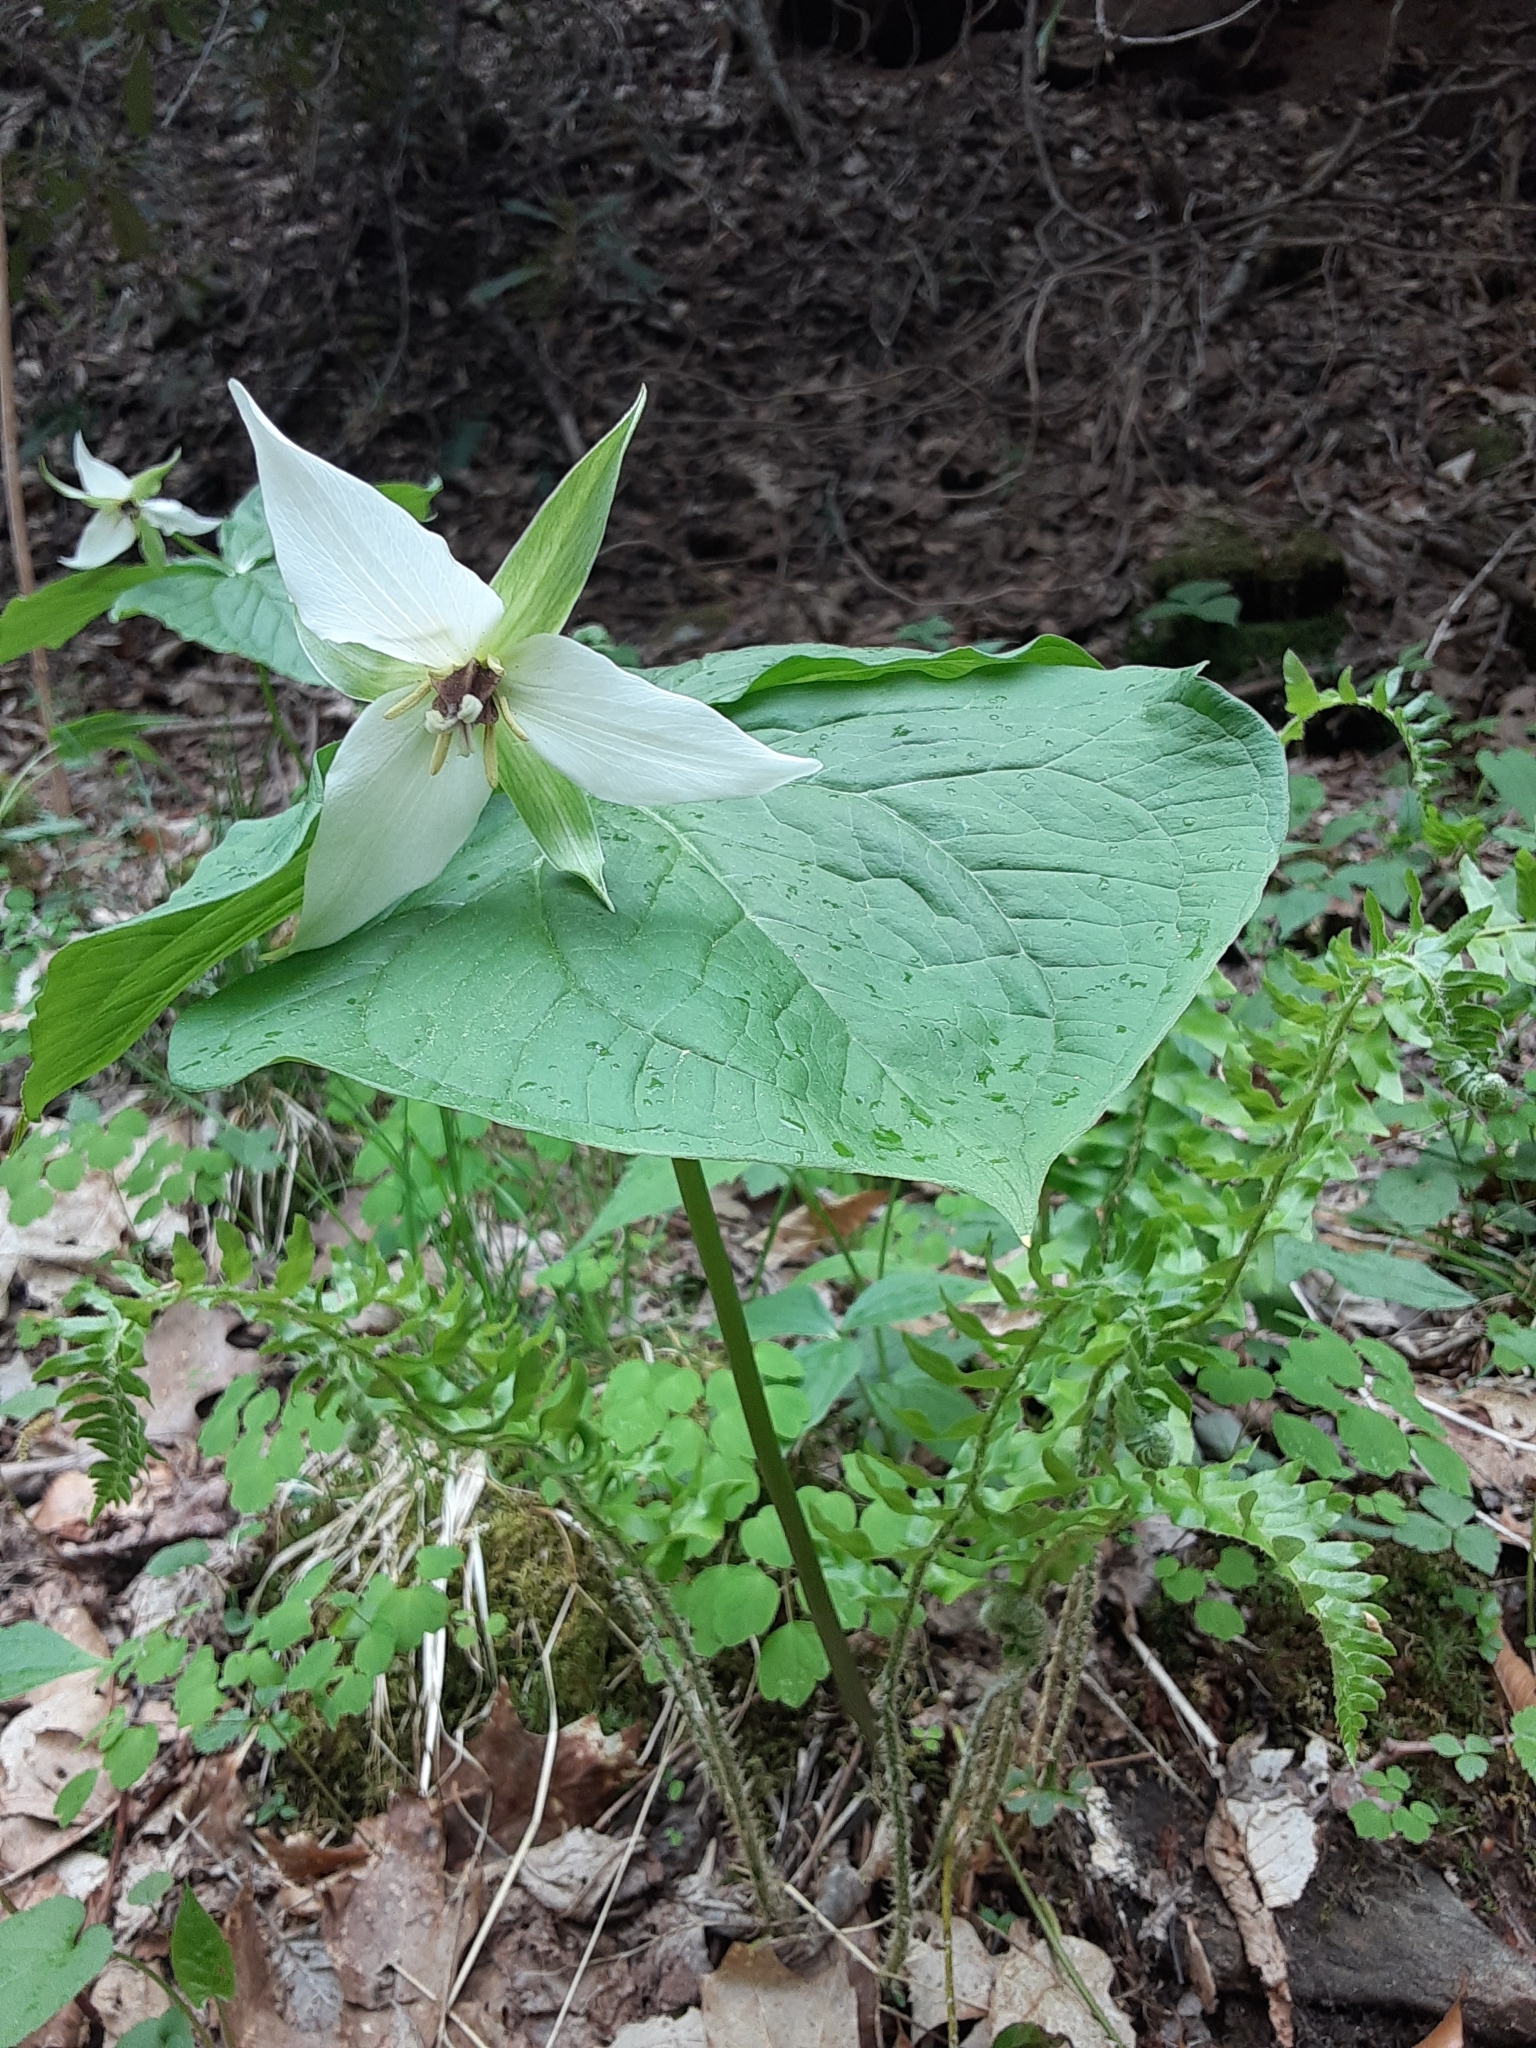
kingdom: Plantae
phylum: Tracheophyta
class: Liliopsida
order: Liliales
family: Melanthiaceae
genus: Trillium
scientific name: Trillium erectum
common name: Purple trillium
